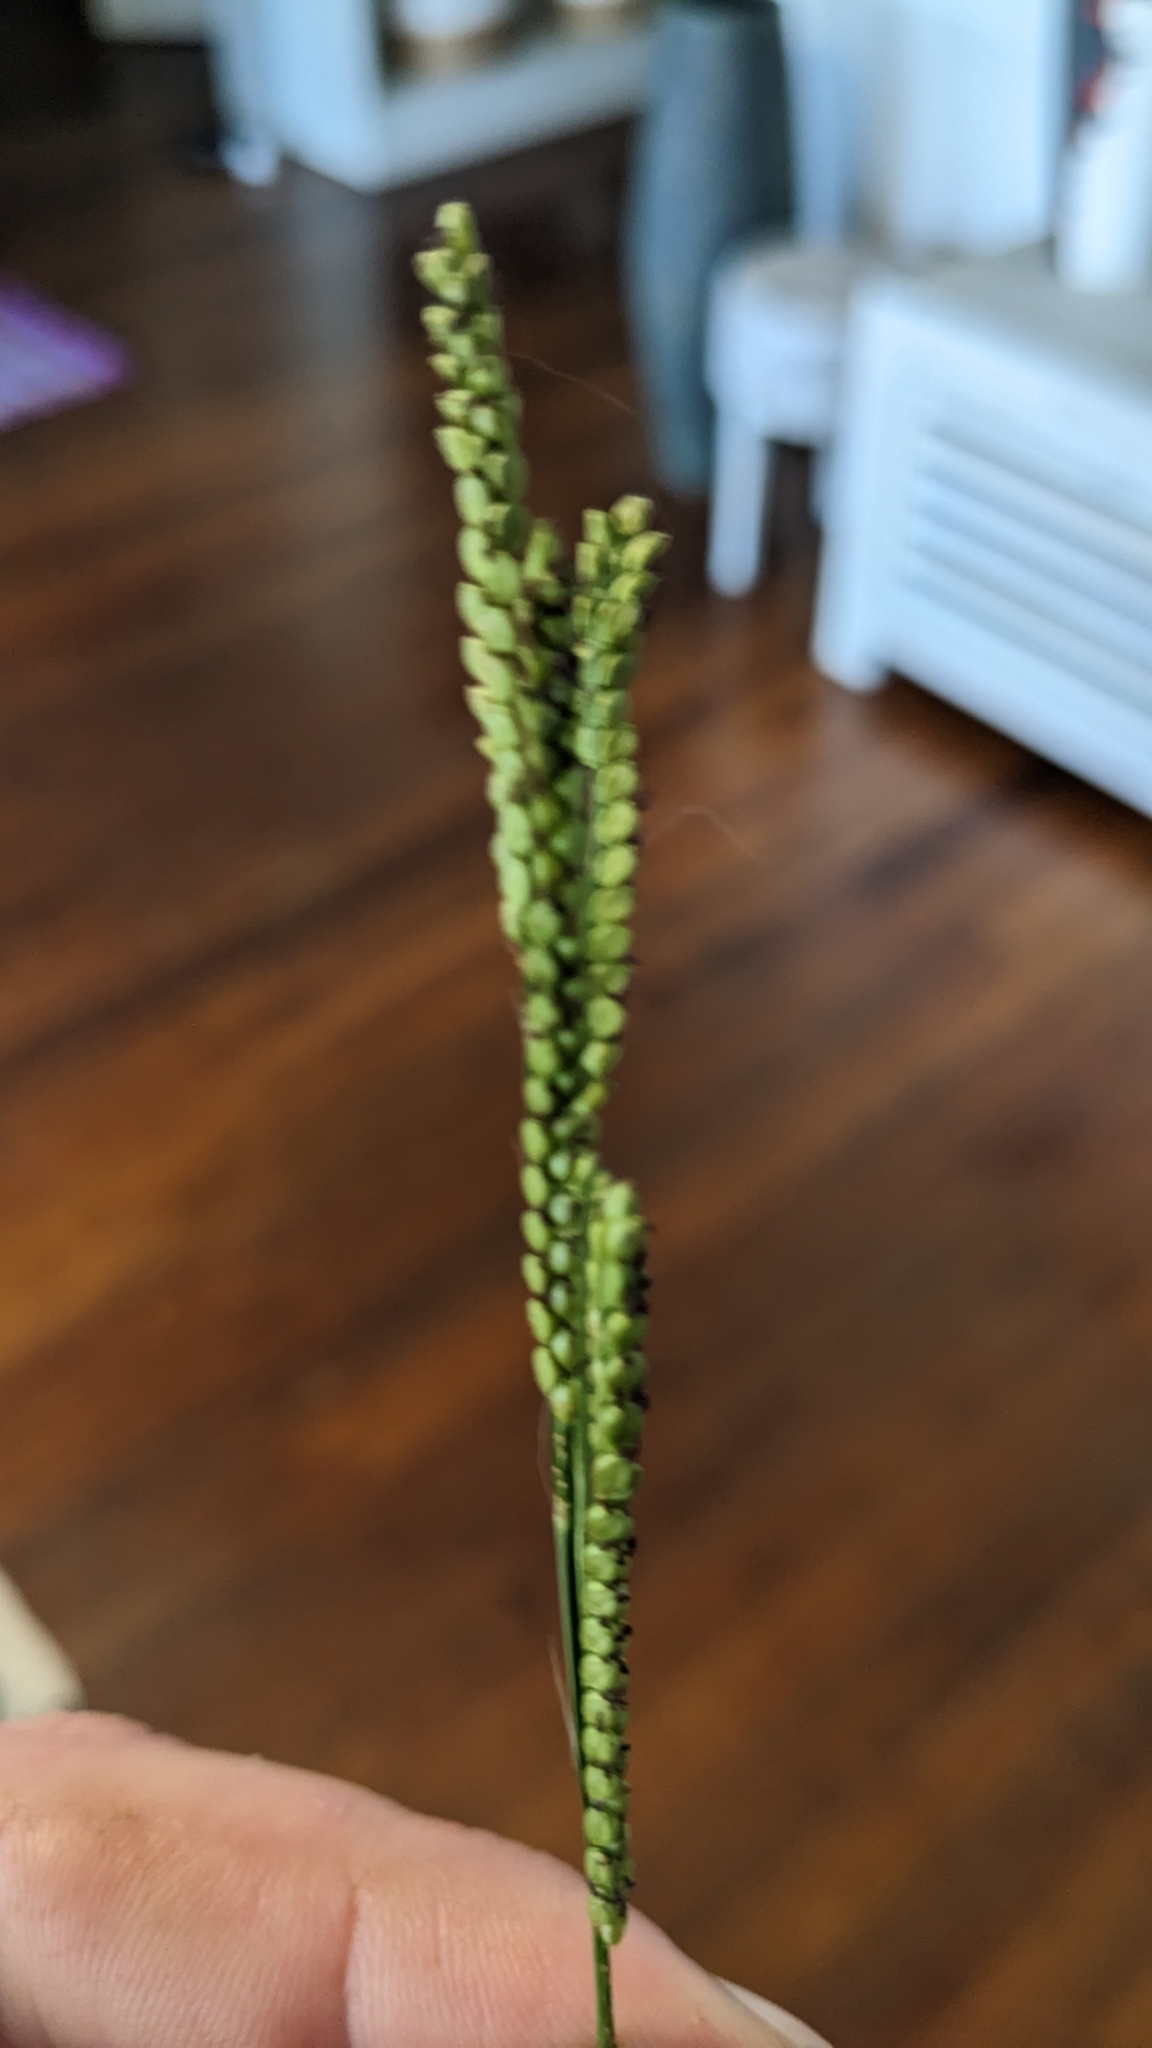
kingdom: Plantae
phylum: Tracheophyta
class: Liliopsida
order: Poales
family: Poaceae
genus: Paspalum
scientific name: Paspalum mandiocanum
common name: Paspalum
